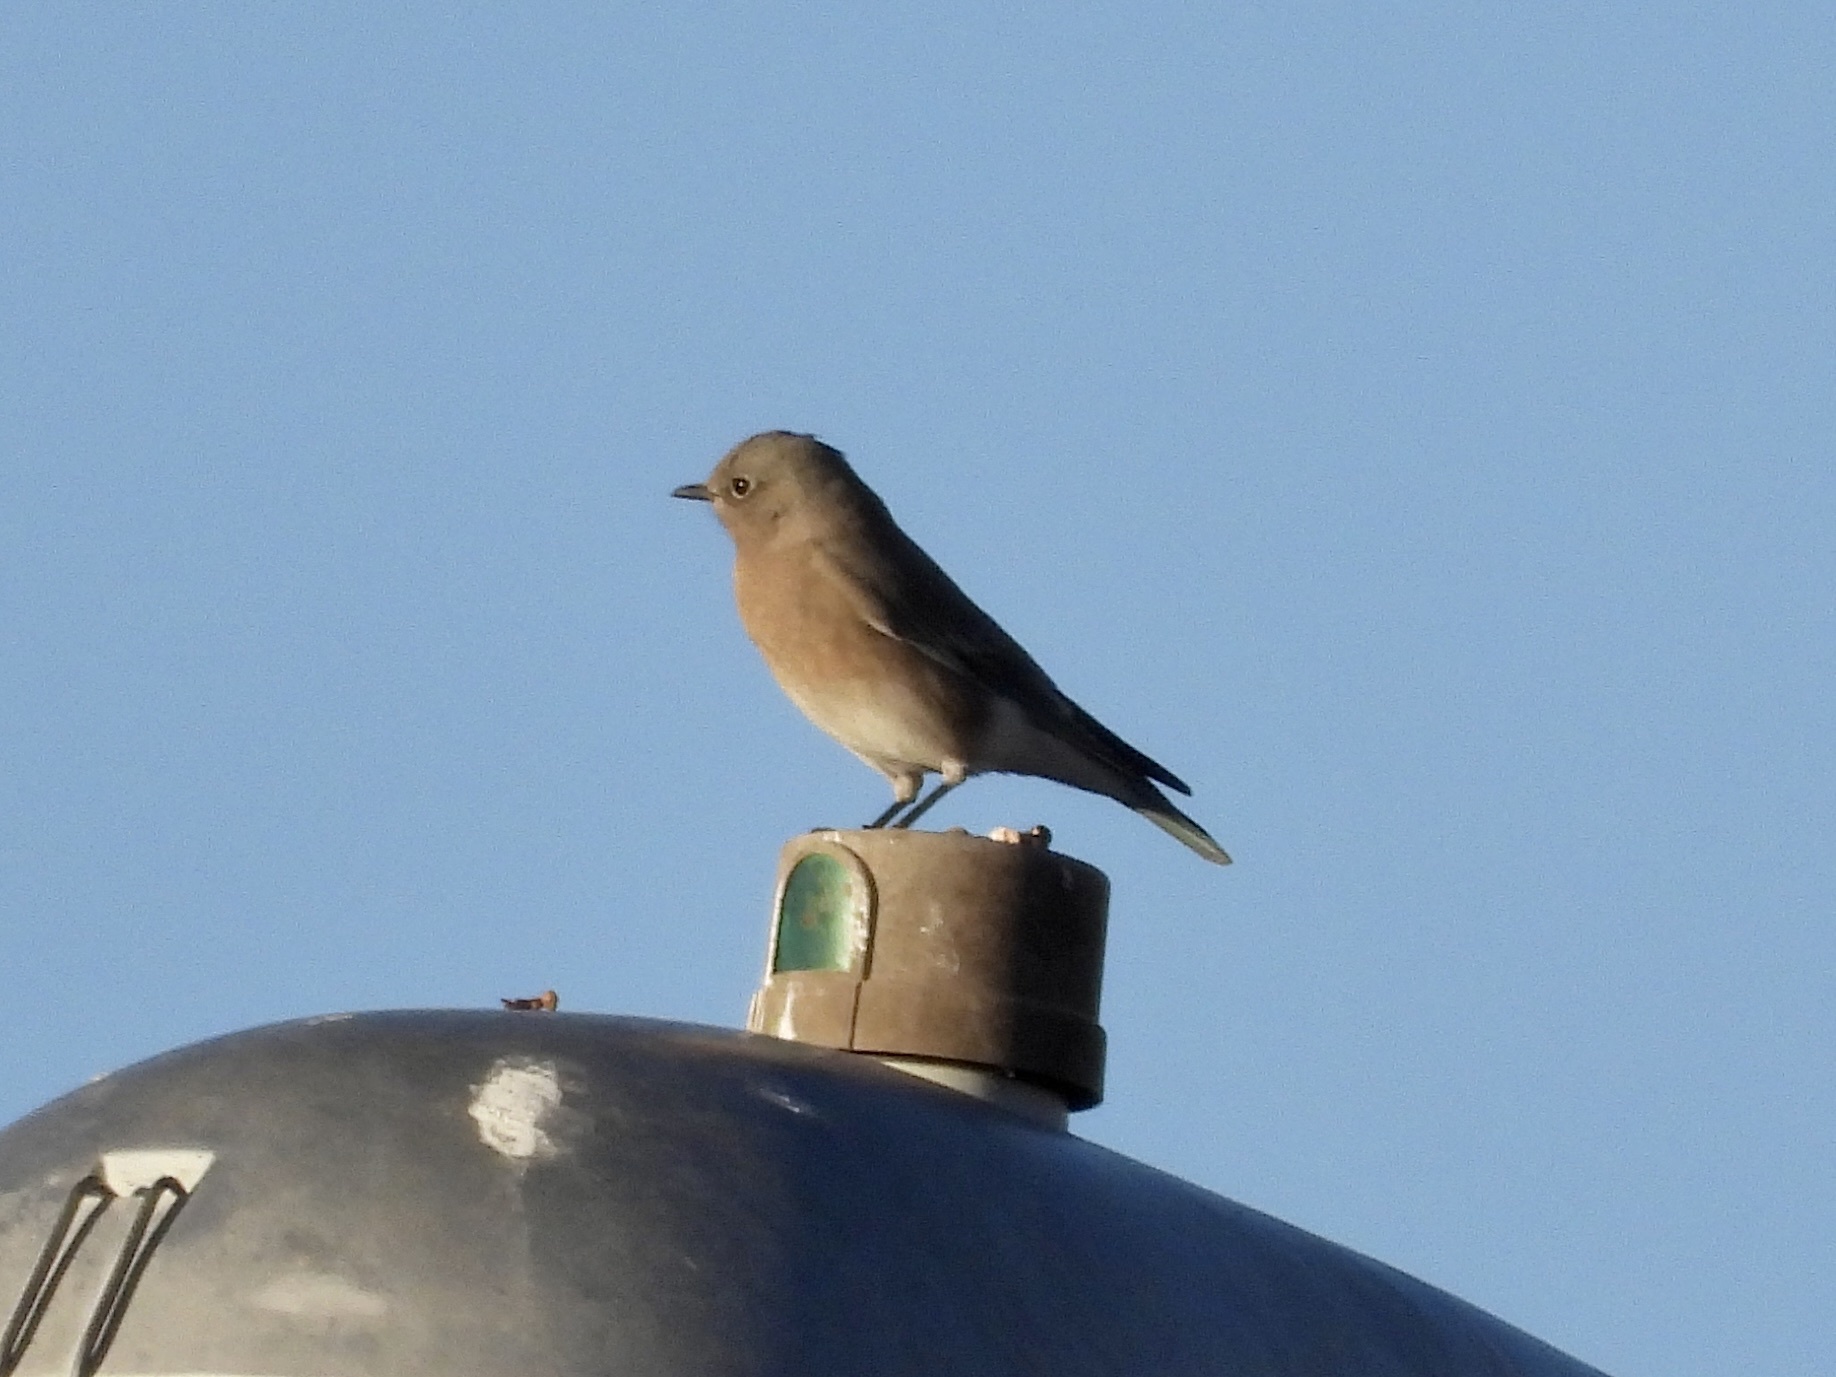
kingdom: Animalia
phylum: Chordata
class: Aves
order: Passeriformes
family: Turdidae
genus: Sialia
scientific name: Sialia mexicana
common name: Western bluebird
